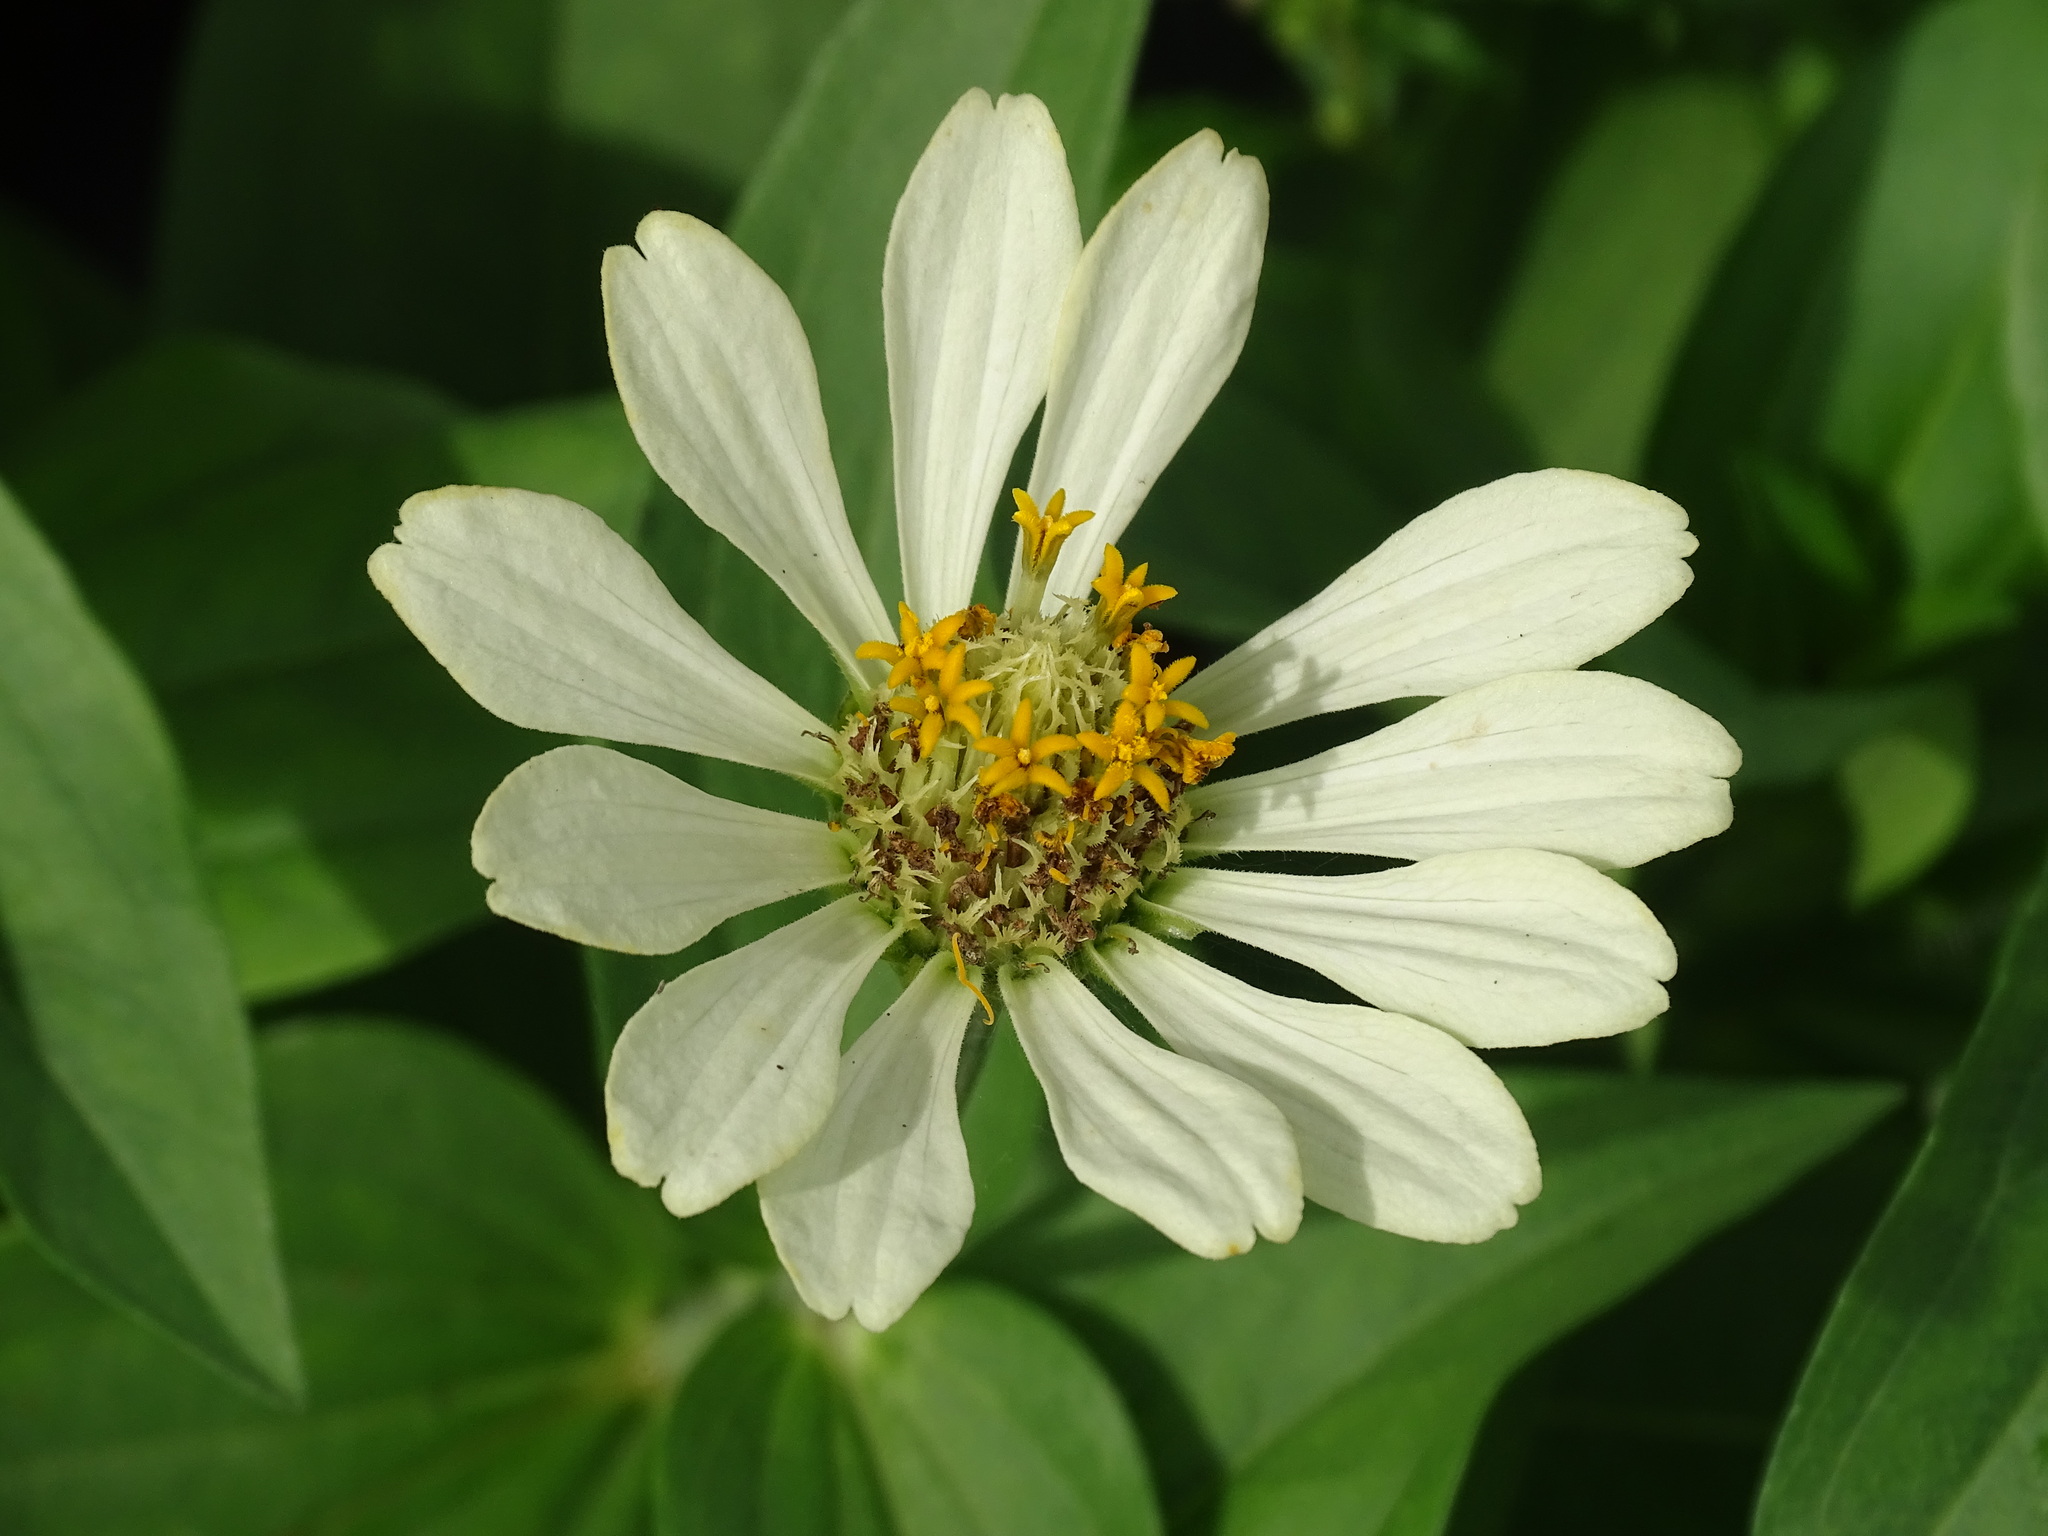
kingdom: Plantae
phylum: Tracheophyta
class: Magnoliopsida
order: Asterales
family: Asteraceae
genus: Zinnia
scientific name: Zinnia elegans
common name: Youth-and-age
